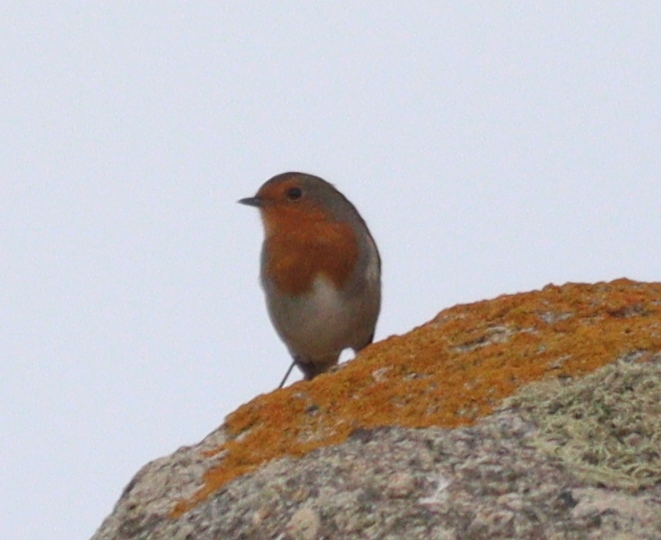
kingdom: Animalia
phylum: Chordata
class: Aves
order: Passeriformes
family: Muscicapidae
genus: Erithacus
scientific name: Erithacus rubecula
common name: European robin
